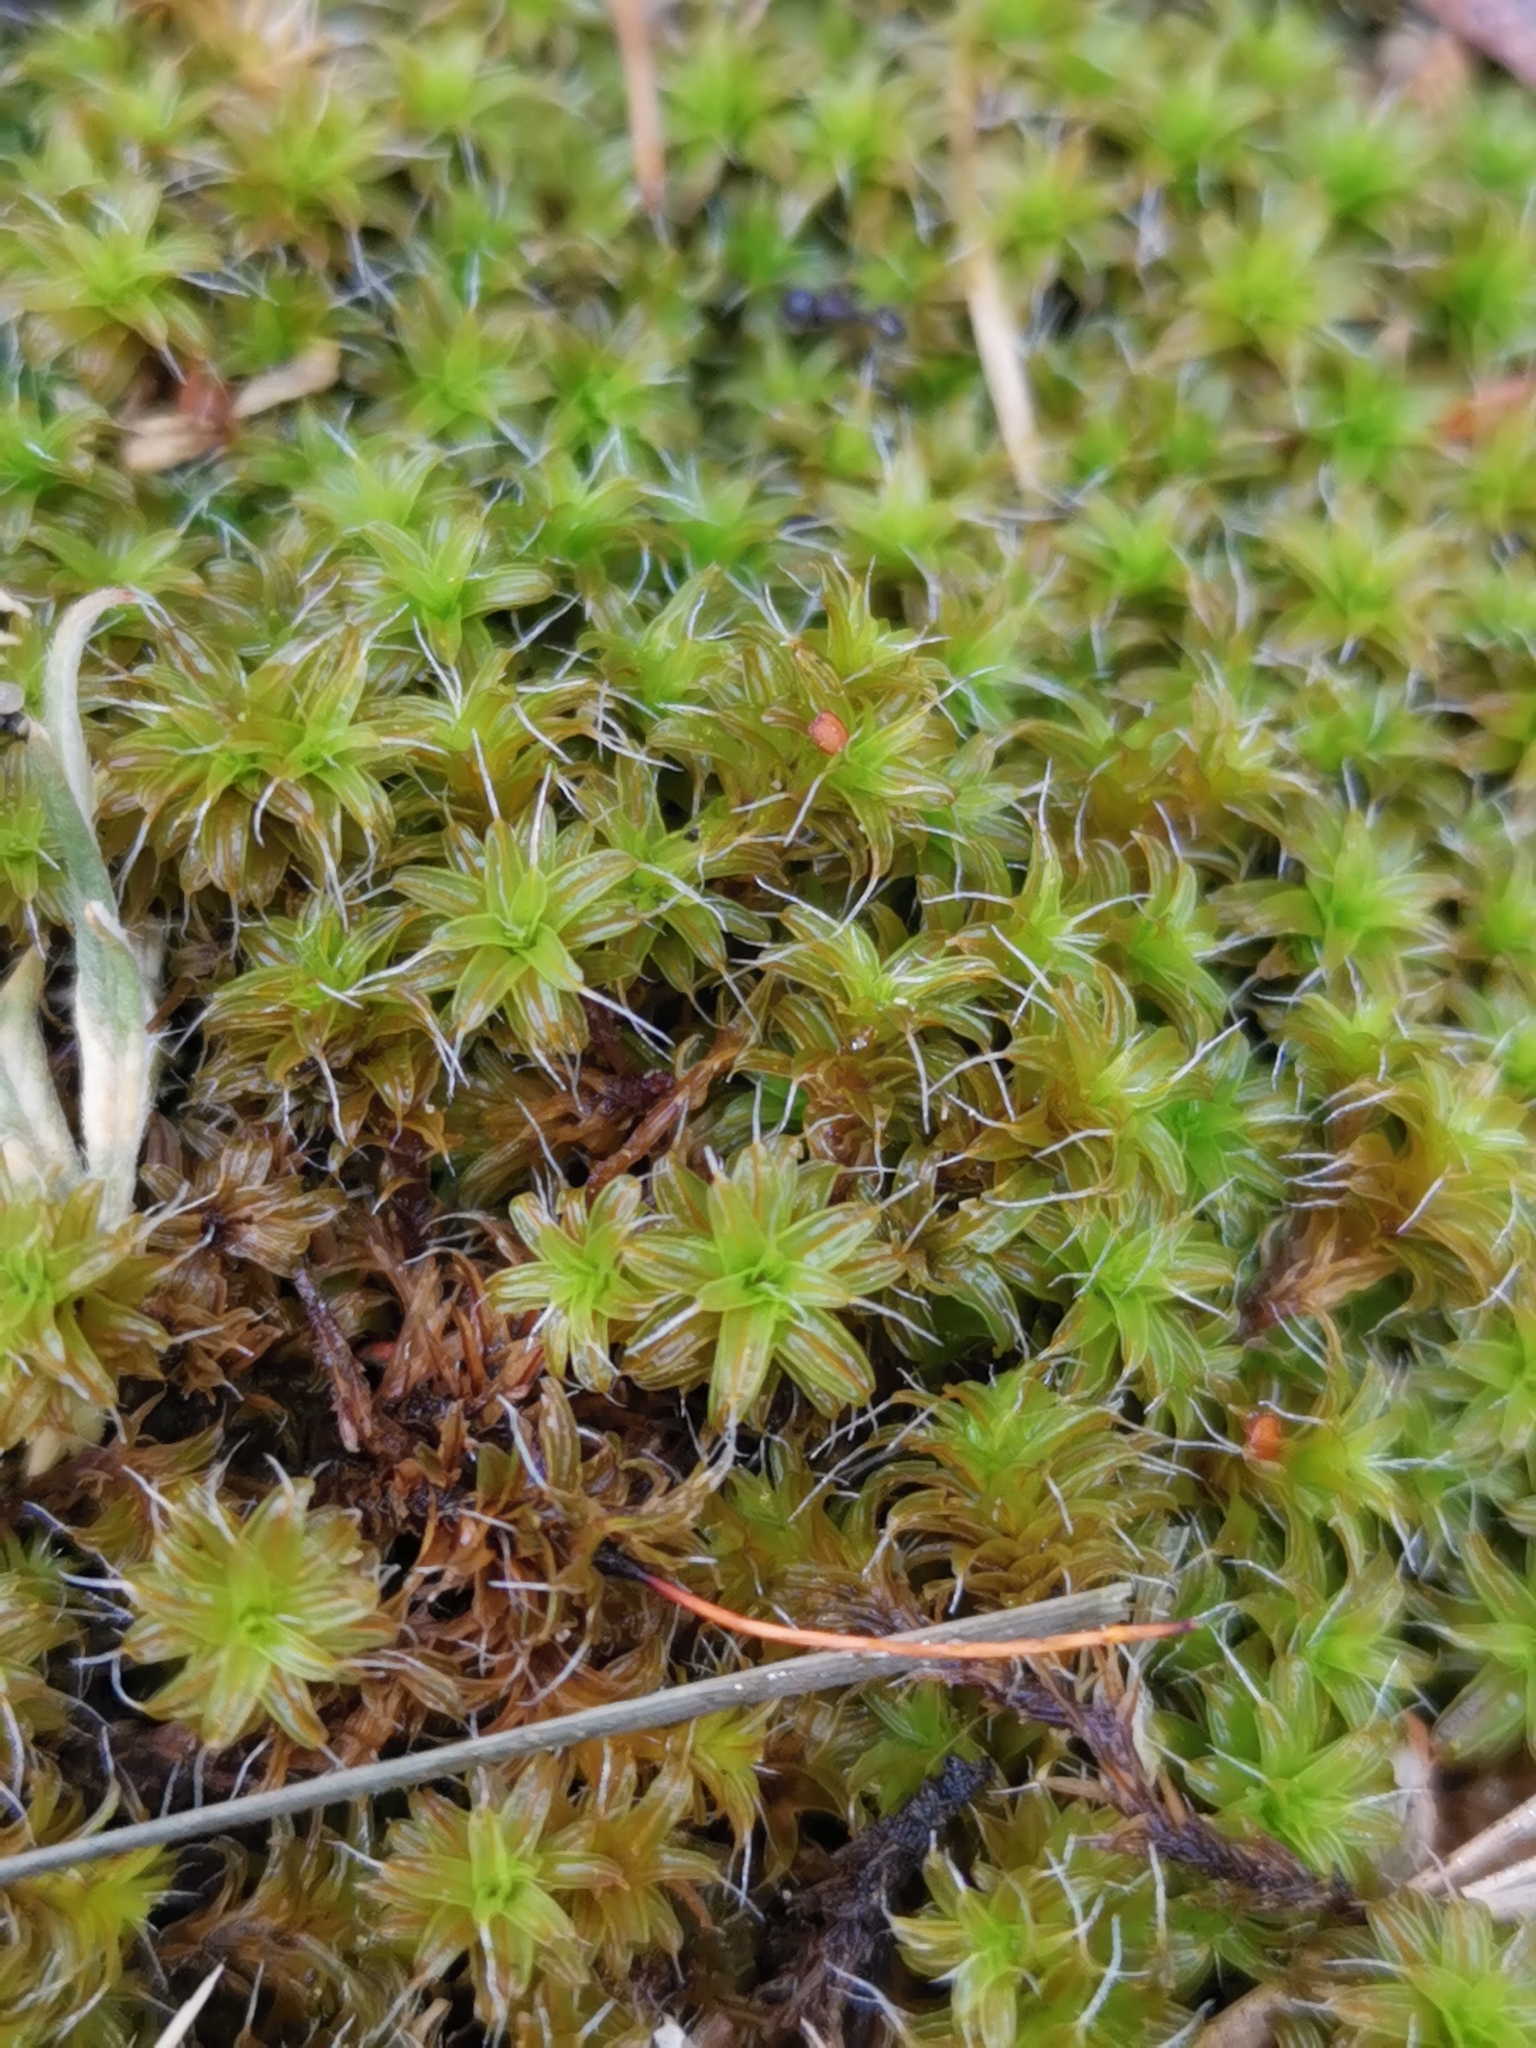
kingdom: Plantae
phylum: Bryophyta
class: Bryopsida
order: Pottiales
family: Pottiaceae
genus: Syntrichia
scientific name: Syntrichia ruralis
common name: Sidewalk screw moss
